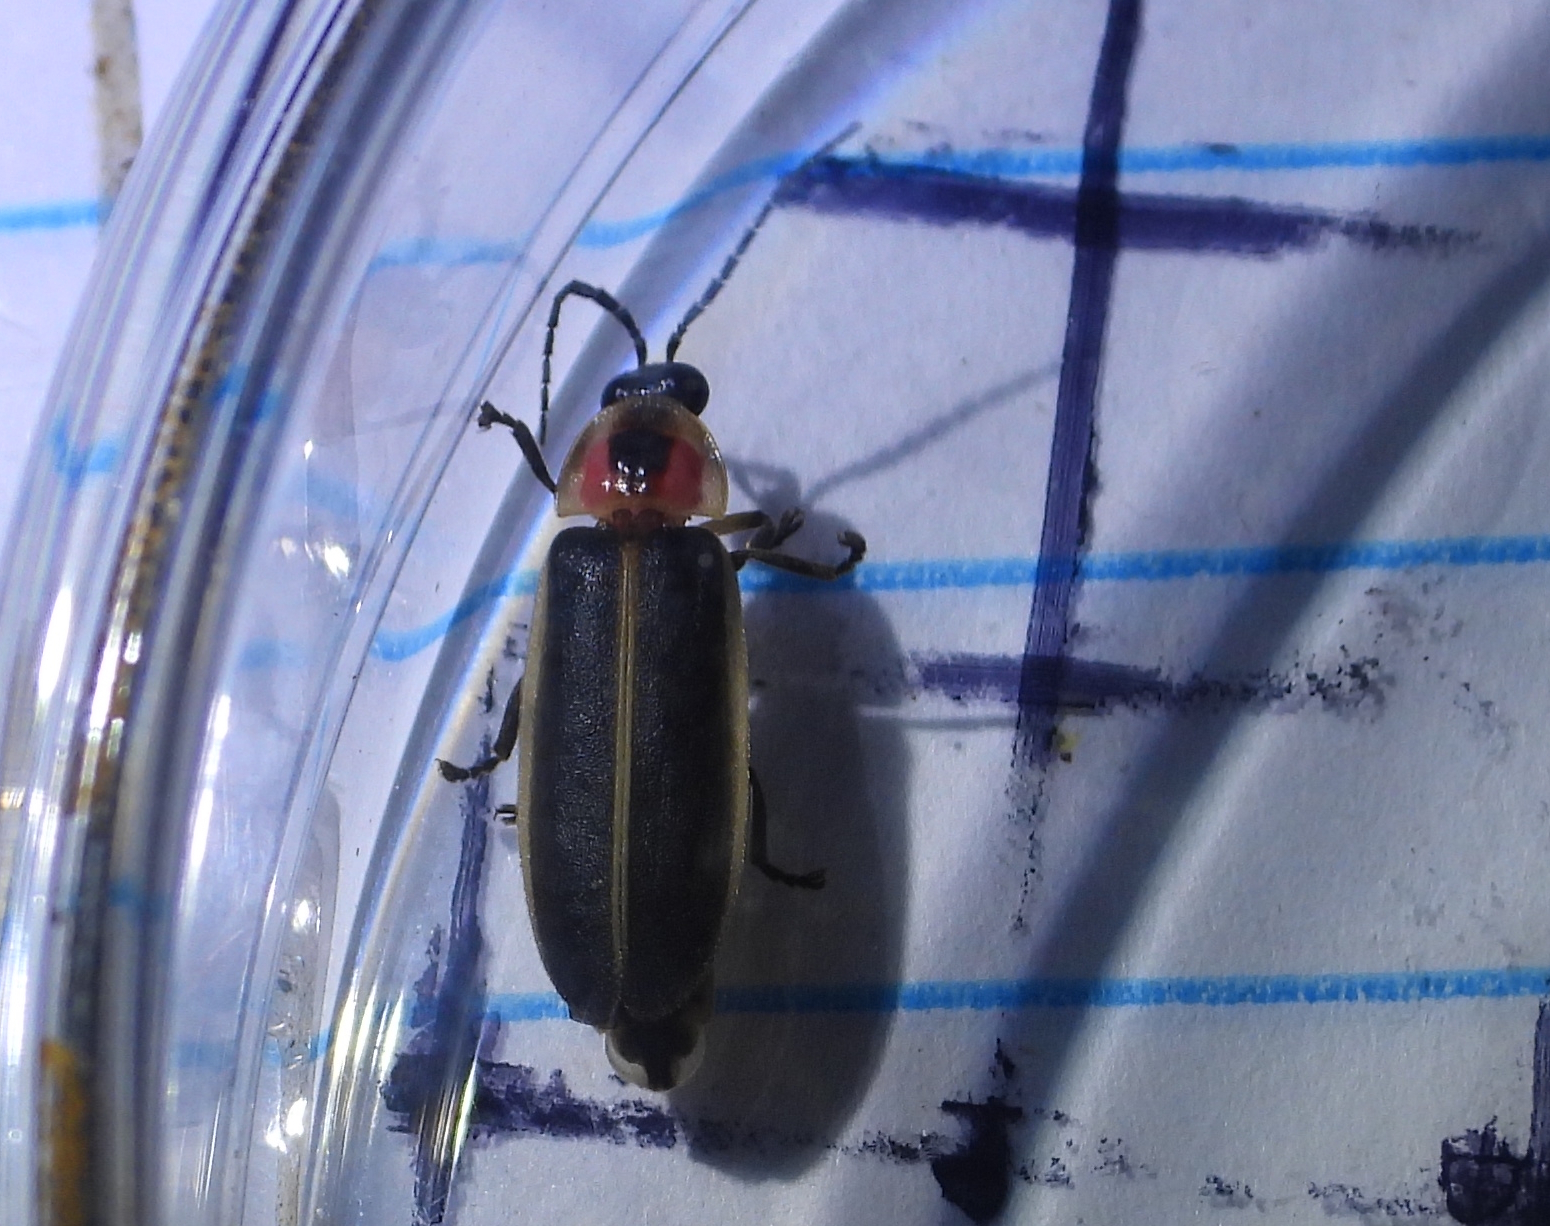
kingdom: Animalia
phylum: Arthropoda
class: Insecta
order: Coleoptera
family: Lampyridae
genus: Photinus
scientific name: Photinus pyralis
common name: Big dipper firefly
